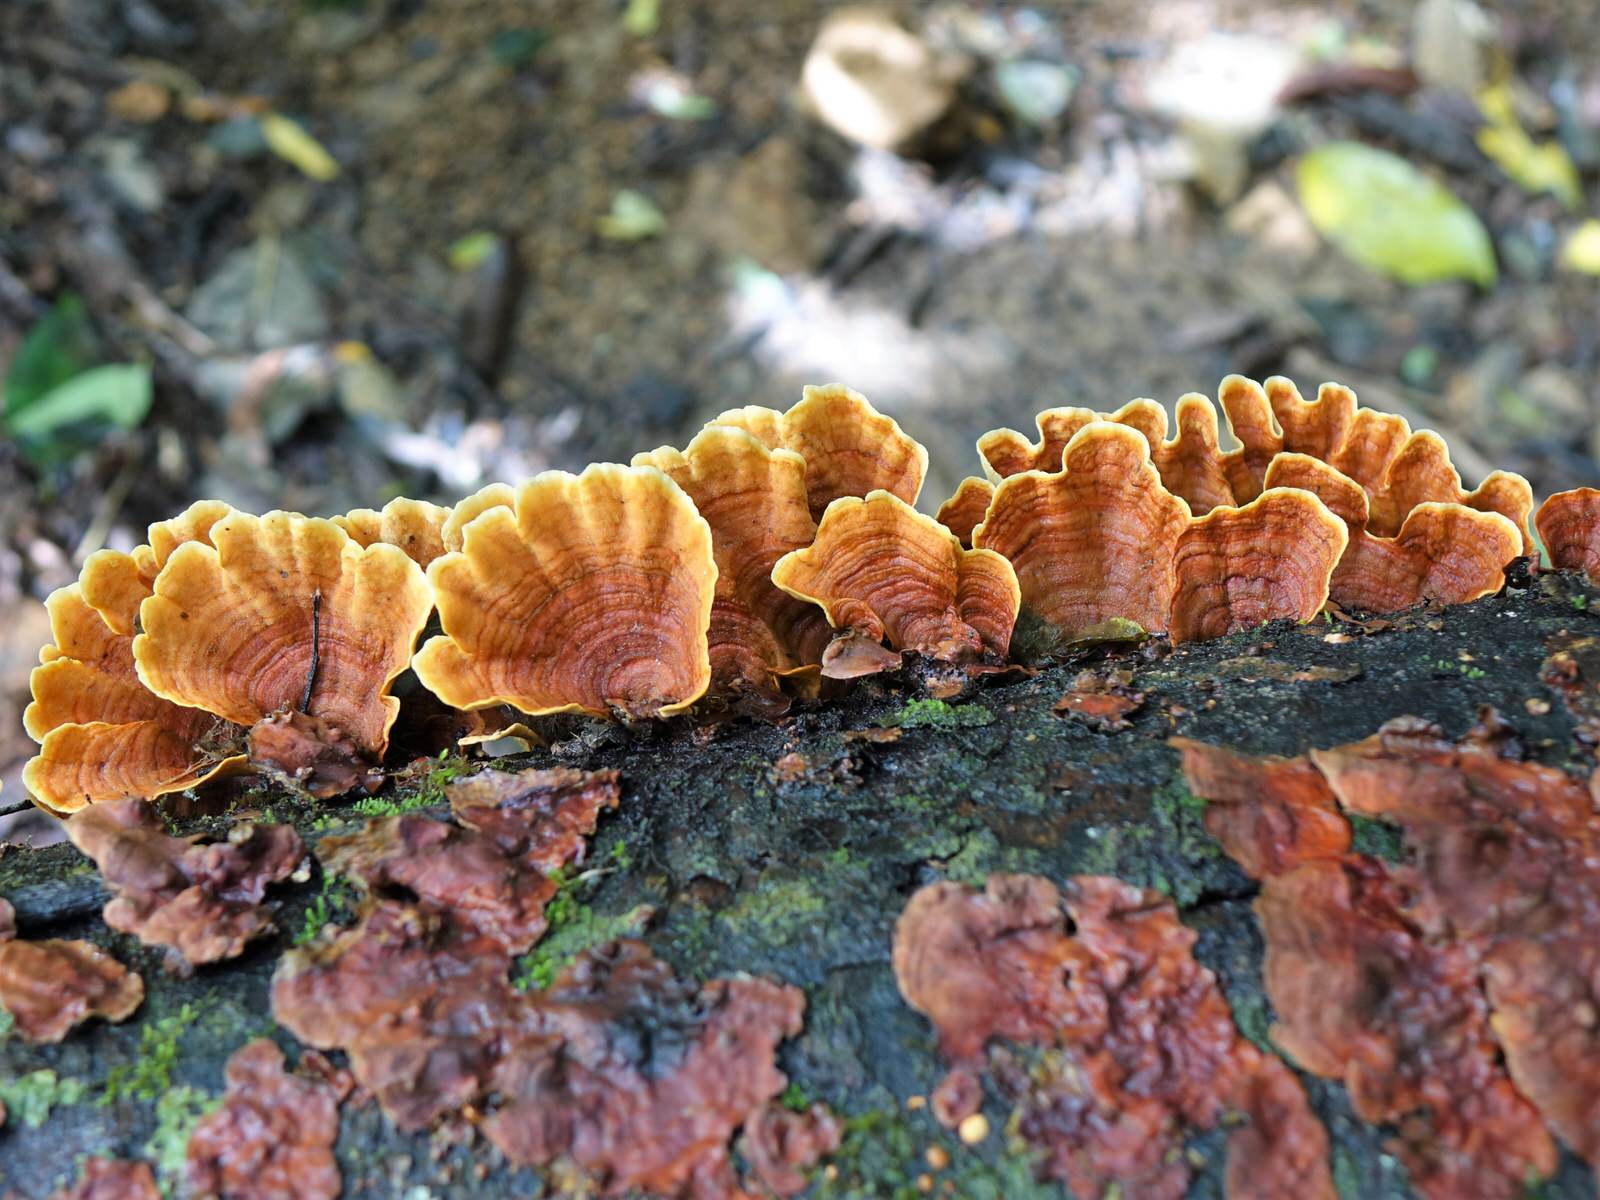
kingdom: Fungi
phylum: Basidiomycota
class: Agaricomycetes
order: Russulales
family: Stereaceae
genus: Stereum
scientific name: Stereum versicolor
